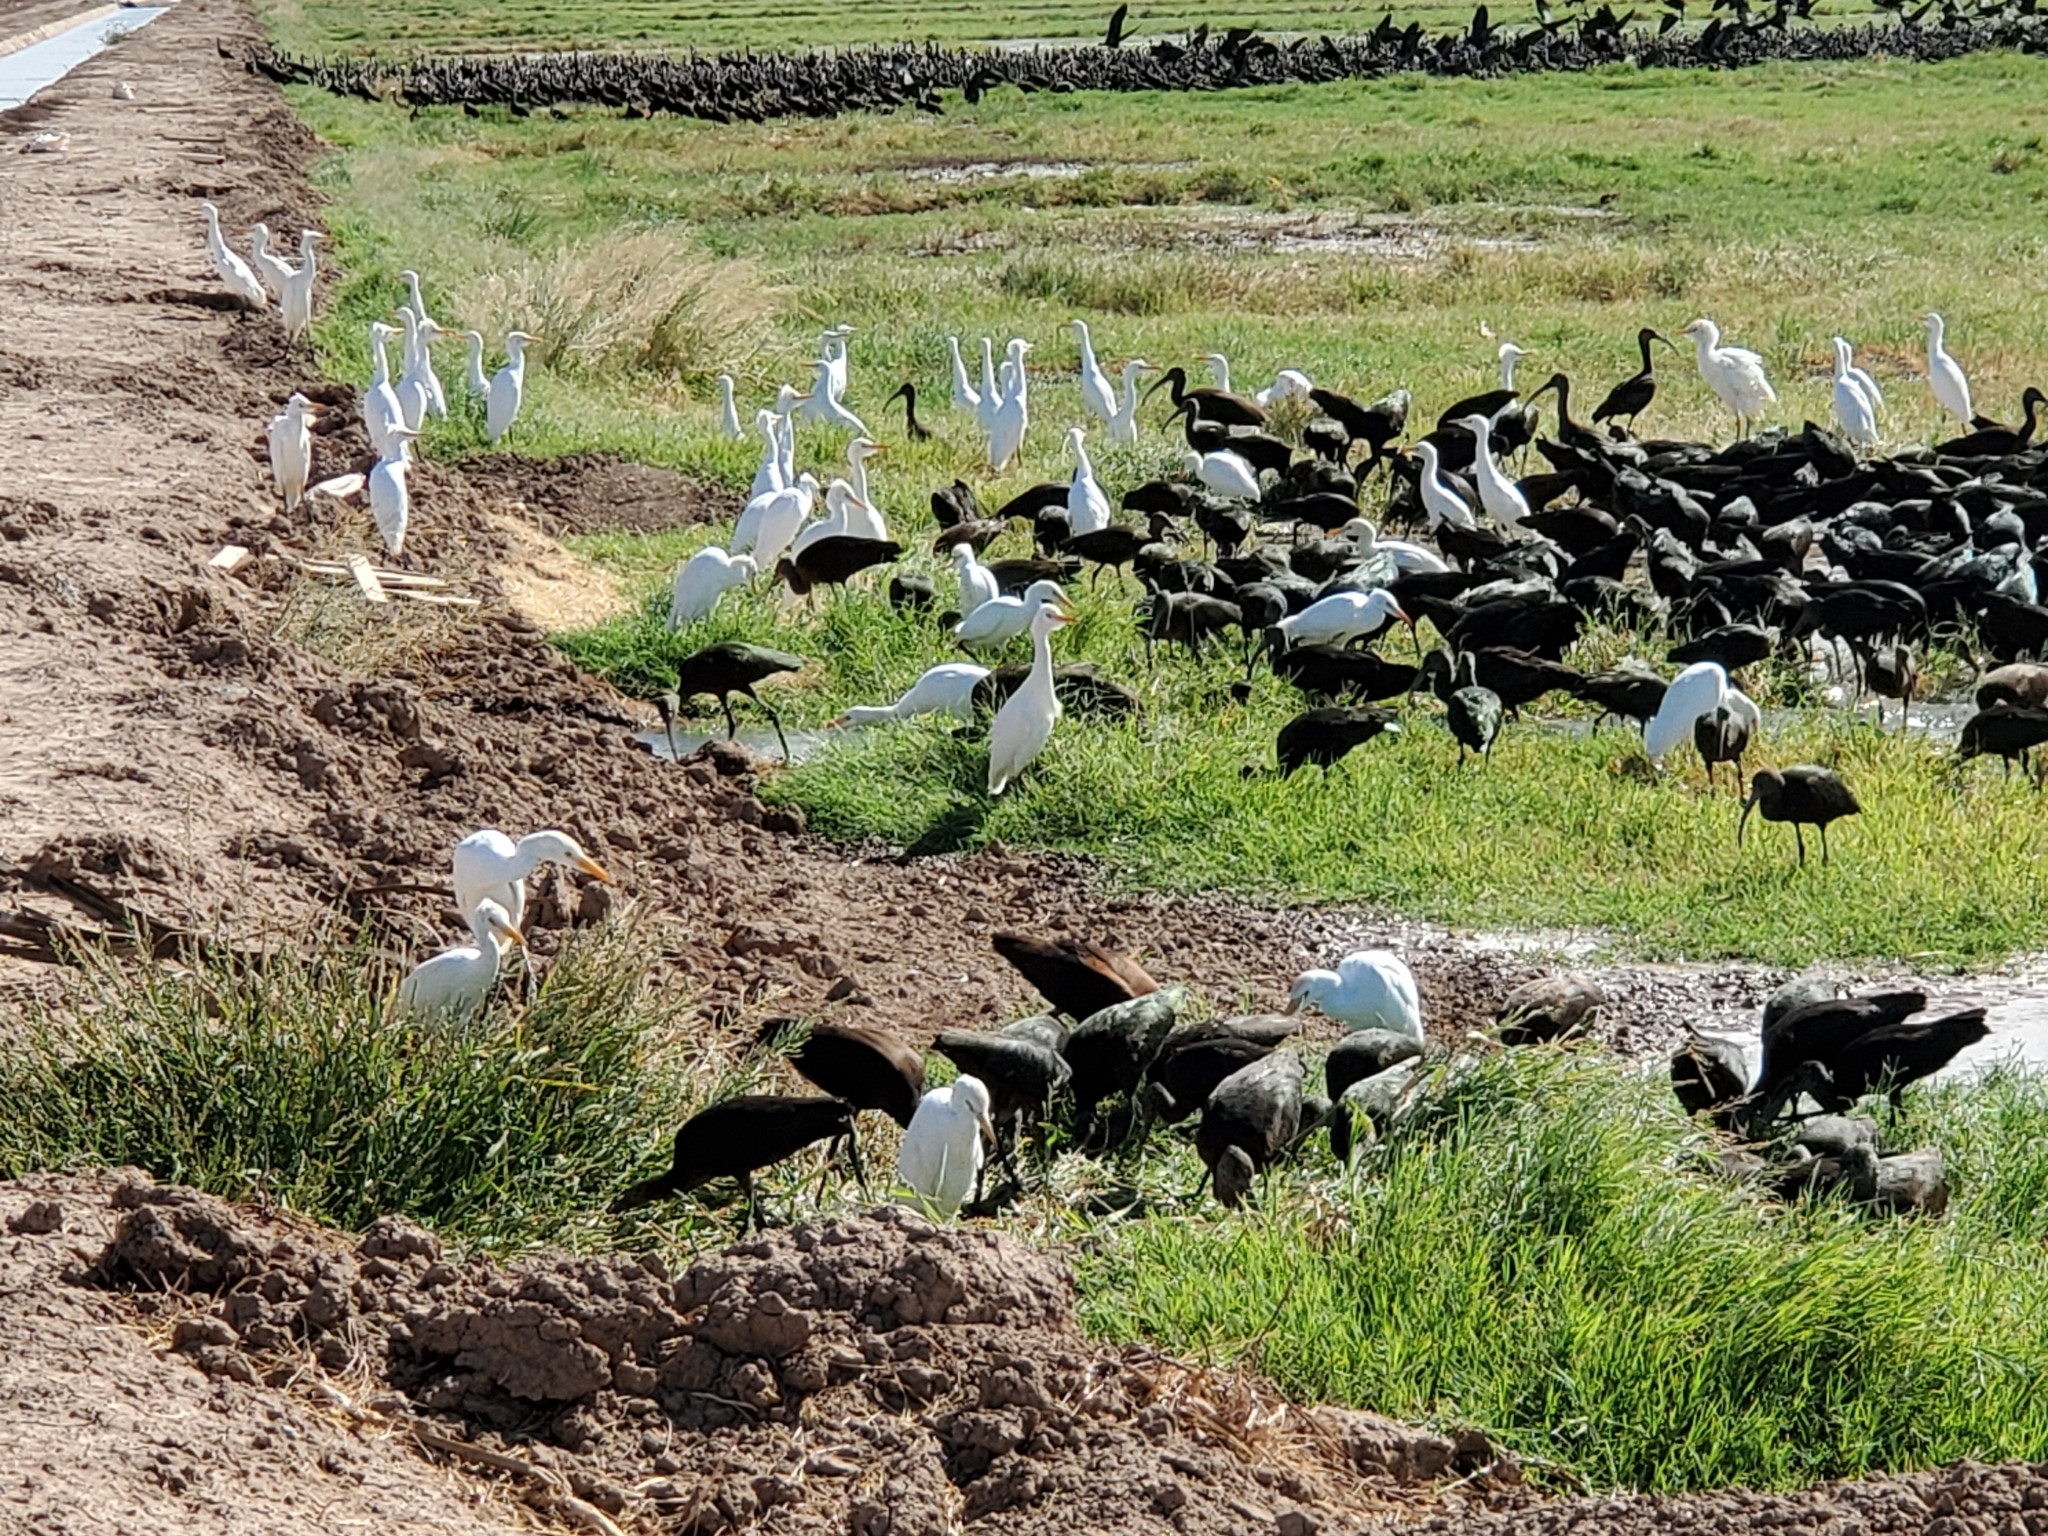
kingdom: Animalia
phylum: Chordata
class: Aves
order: Pelecaniformes
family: Ardeidae
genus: Bubulcus
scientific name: Bubulcus ibis
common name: Cattle egret
